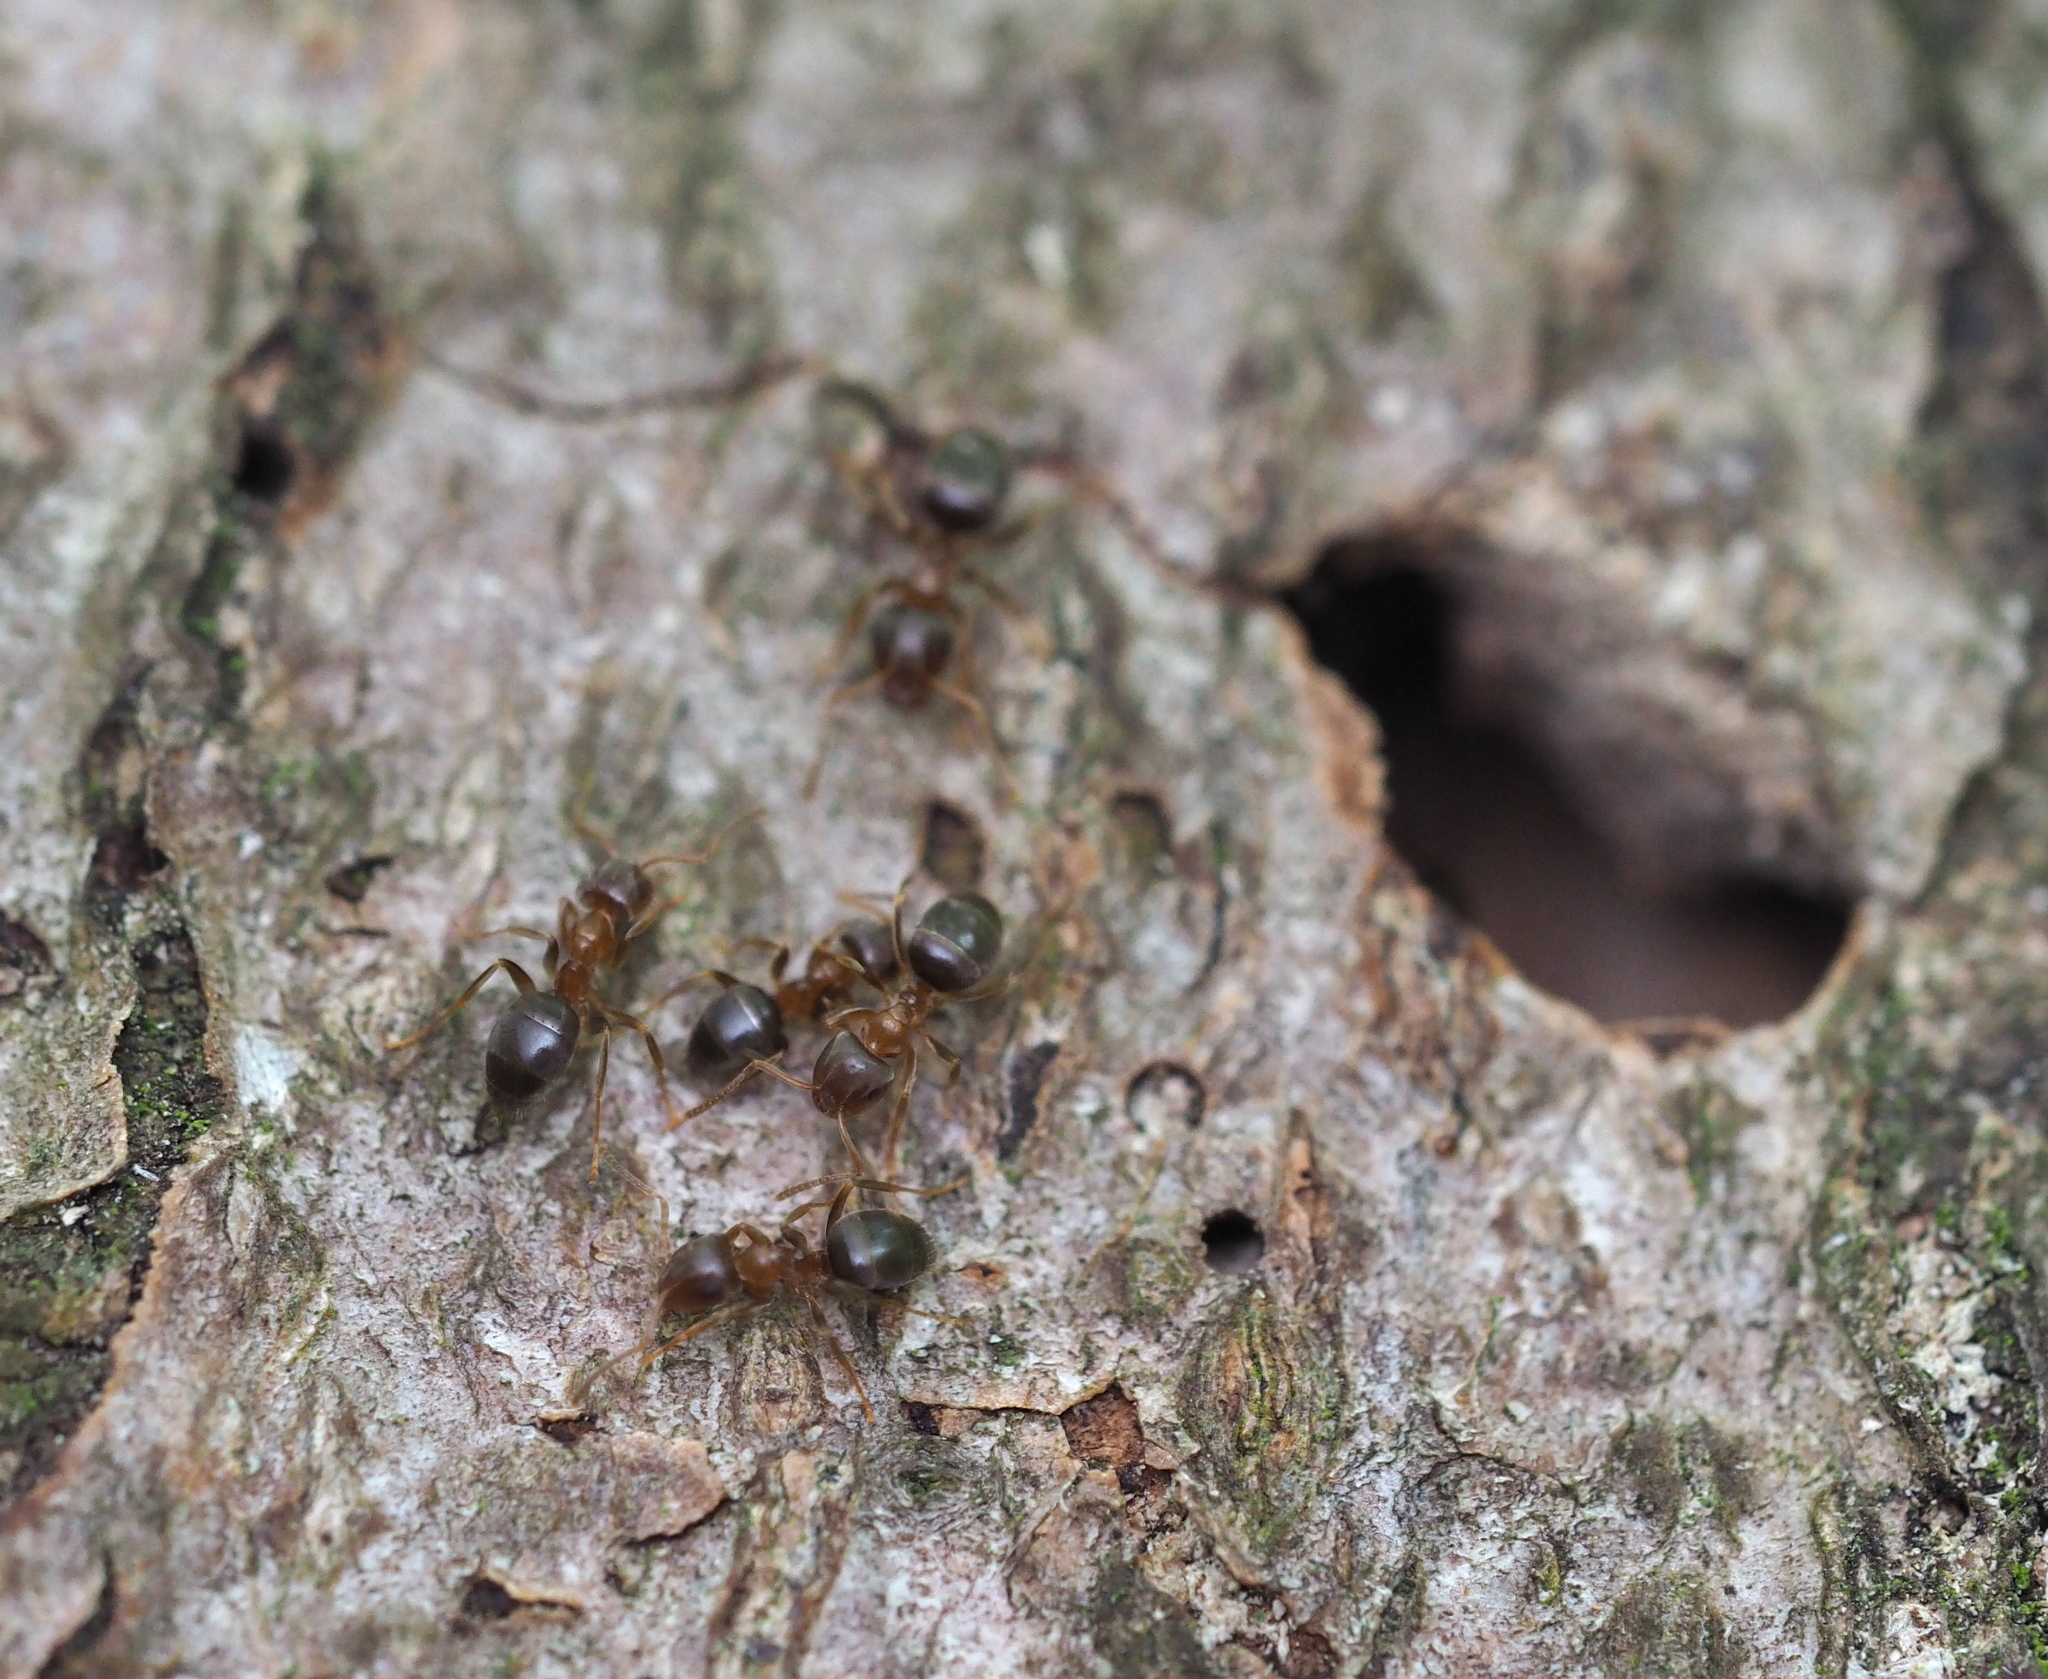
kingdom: Animalia
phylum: Arthropoda
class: Insecta
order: Hymenoptera
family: Formicidae
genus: Lasius
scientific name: Lasius brunneus
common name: Brown ant
